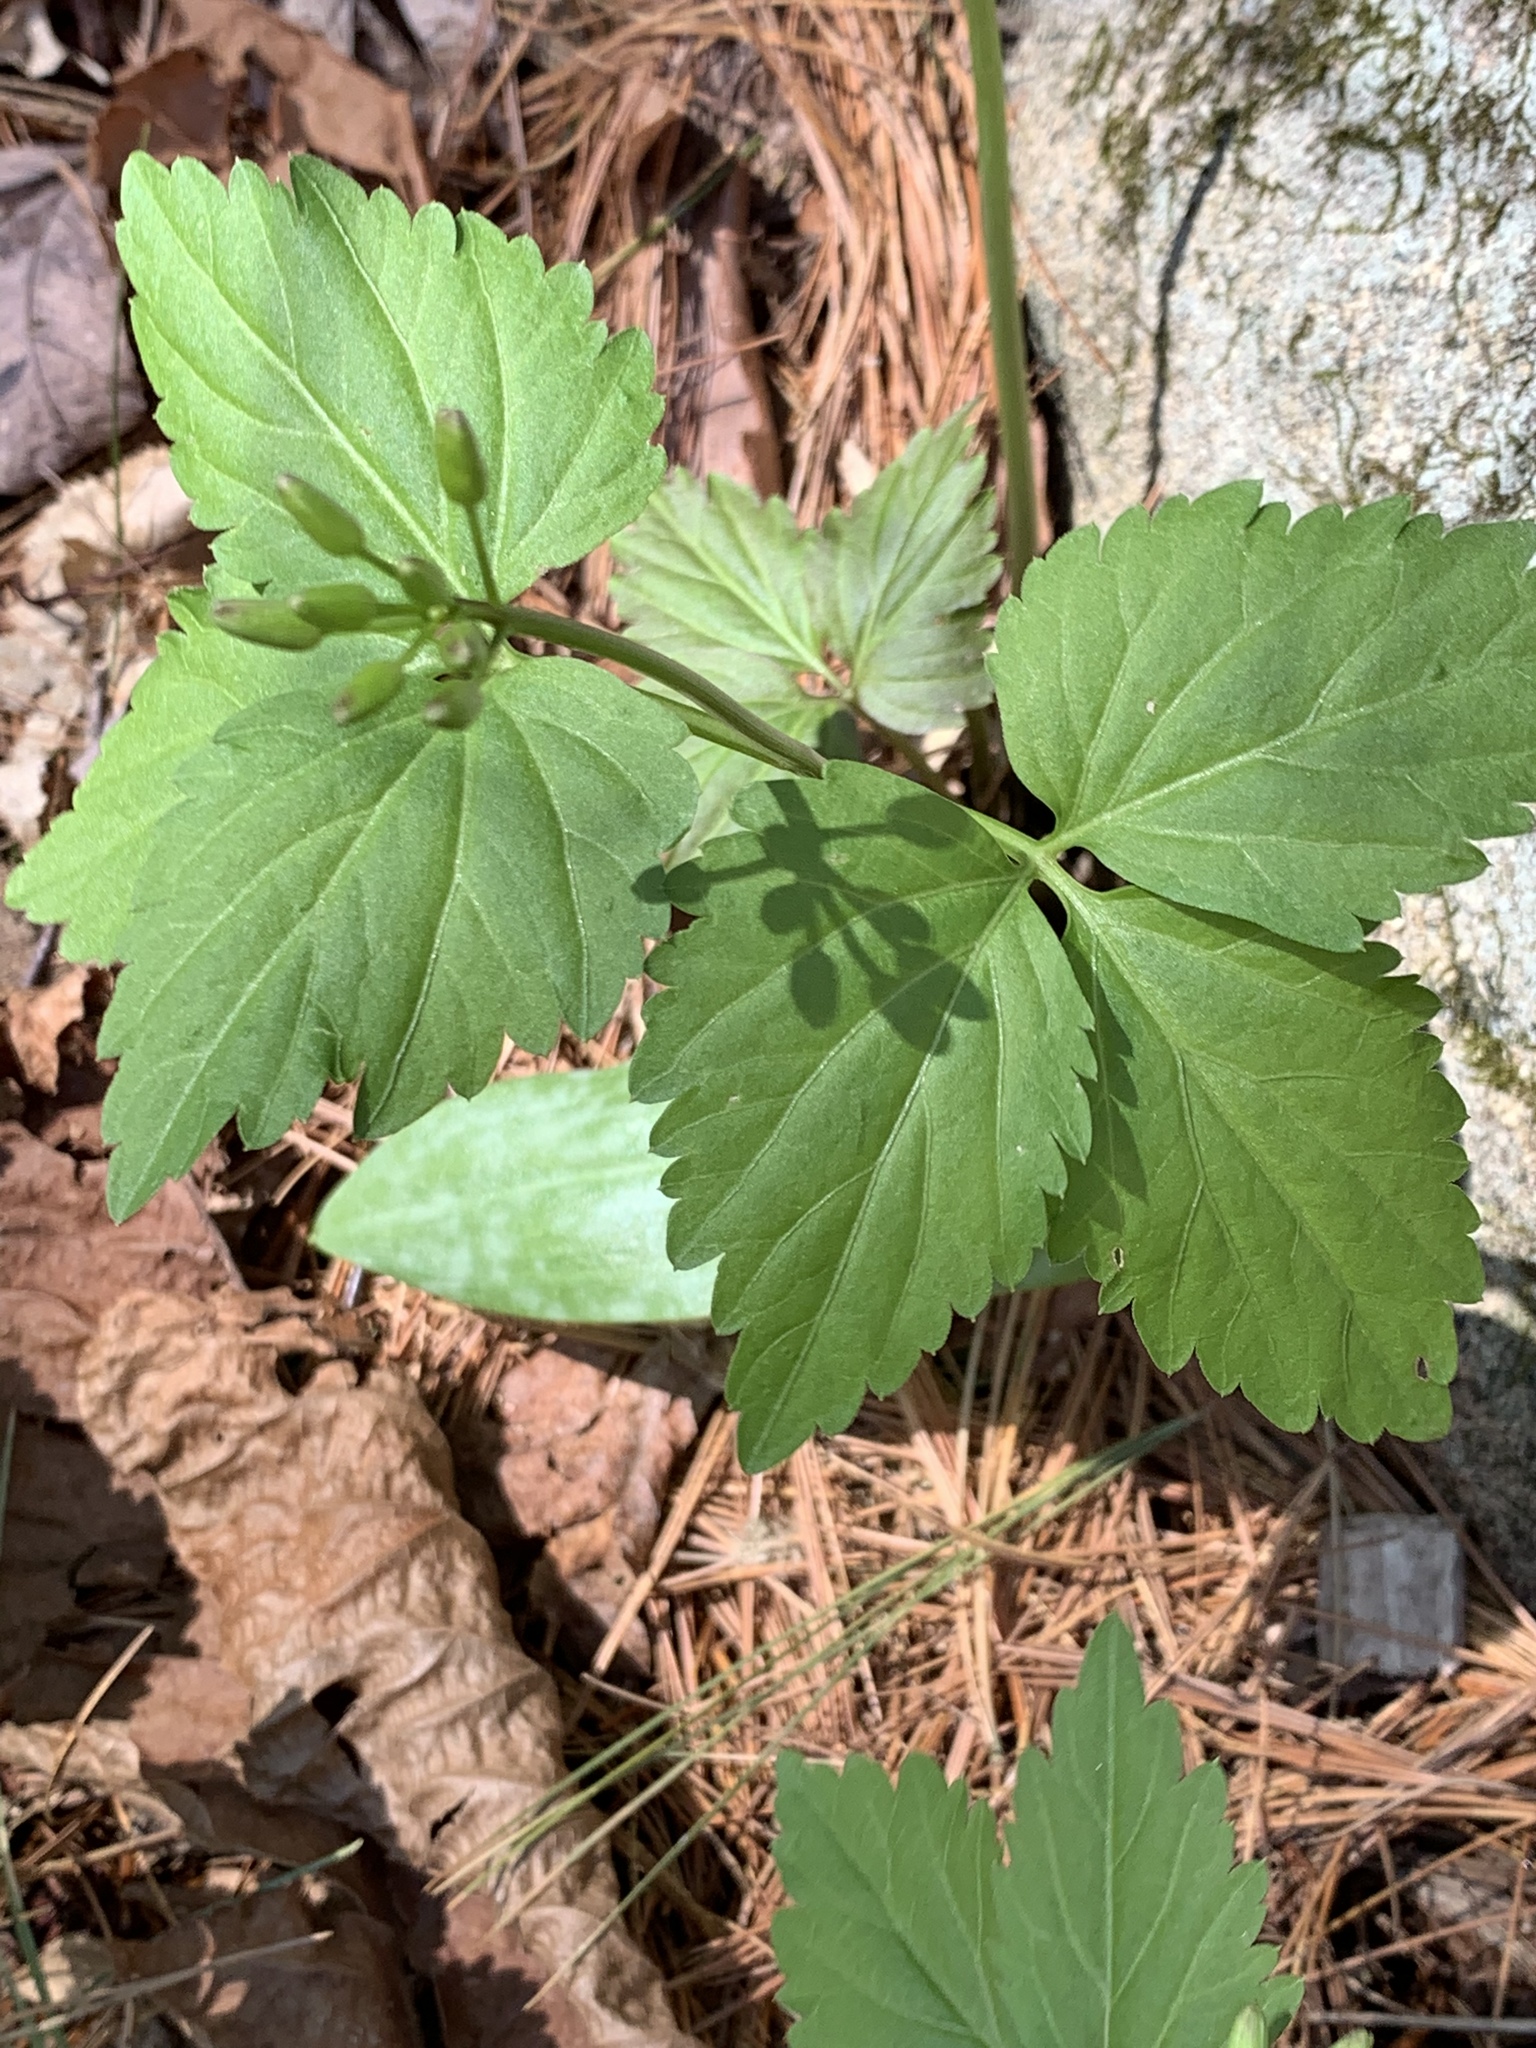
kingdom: Plantae
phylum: Tracheophyta
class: Magnoliopsida
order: Brassicales
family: Brassicaceae
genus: Cardamine
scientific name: Cardamine diphylla
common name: Broad-leaved toothwort
